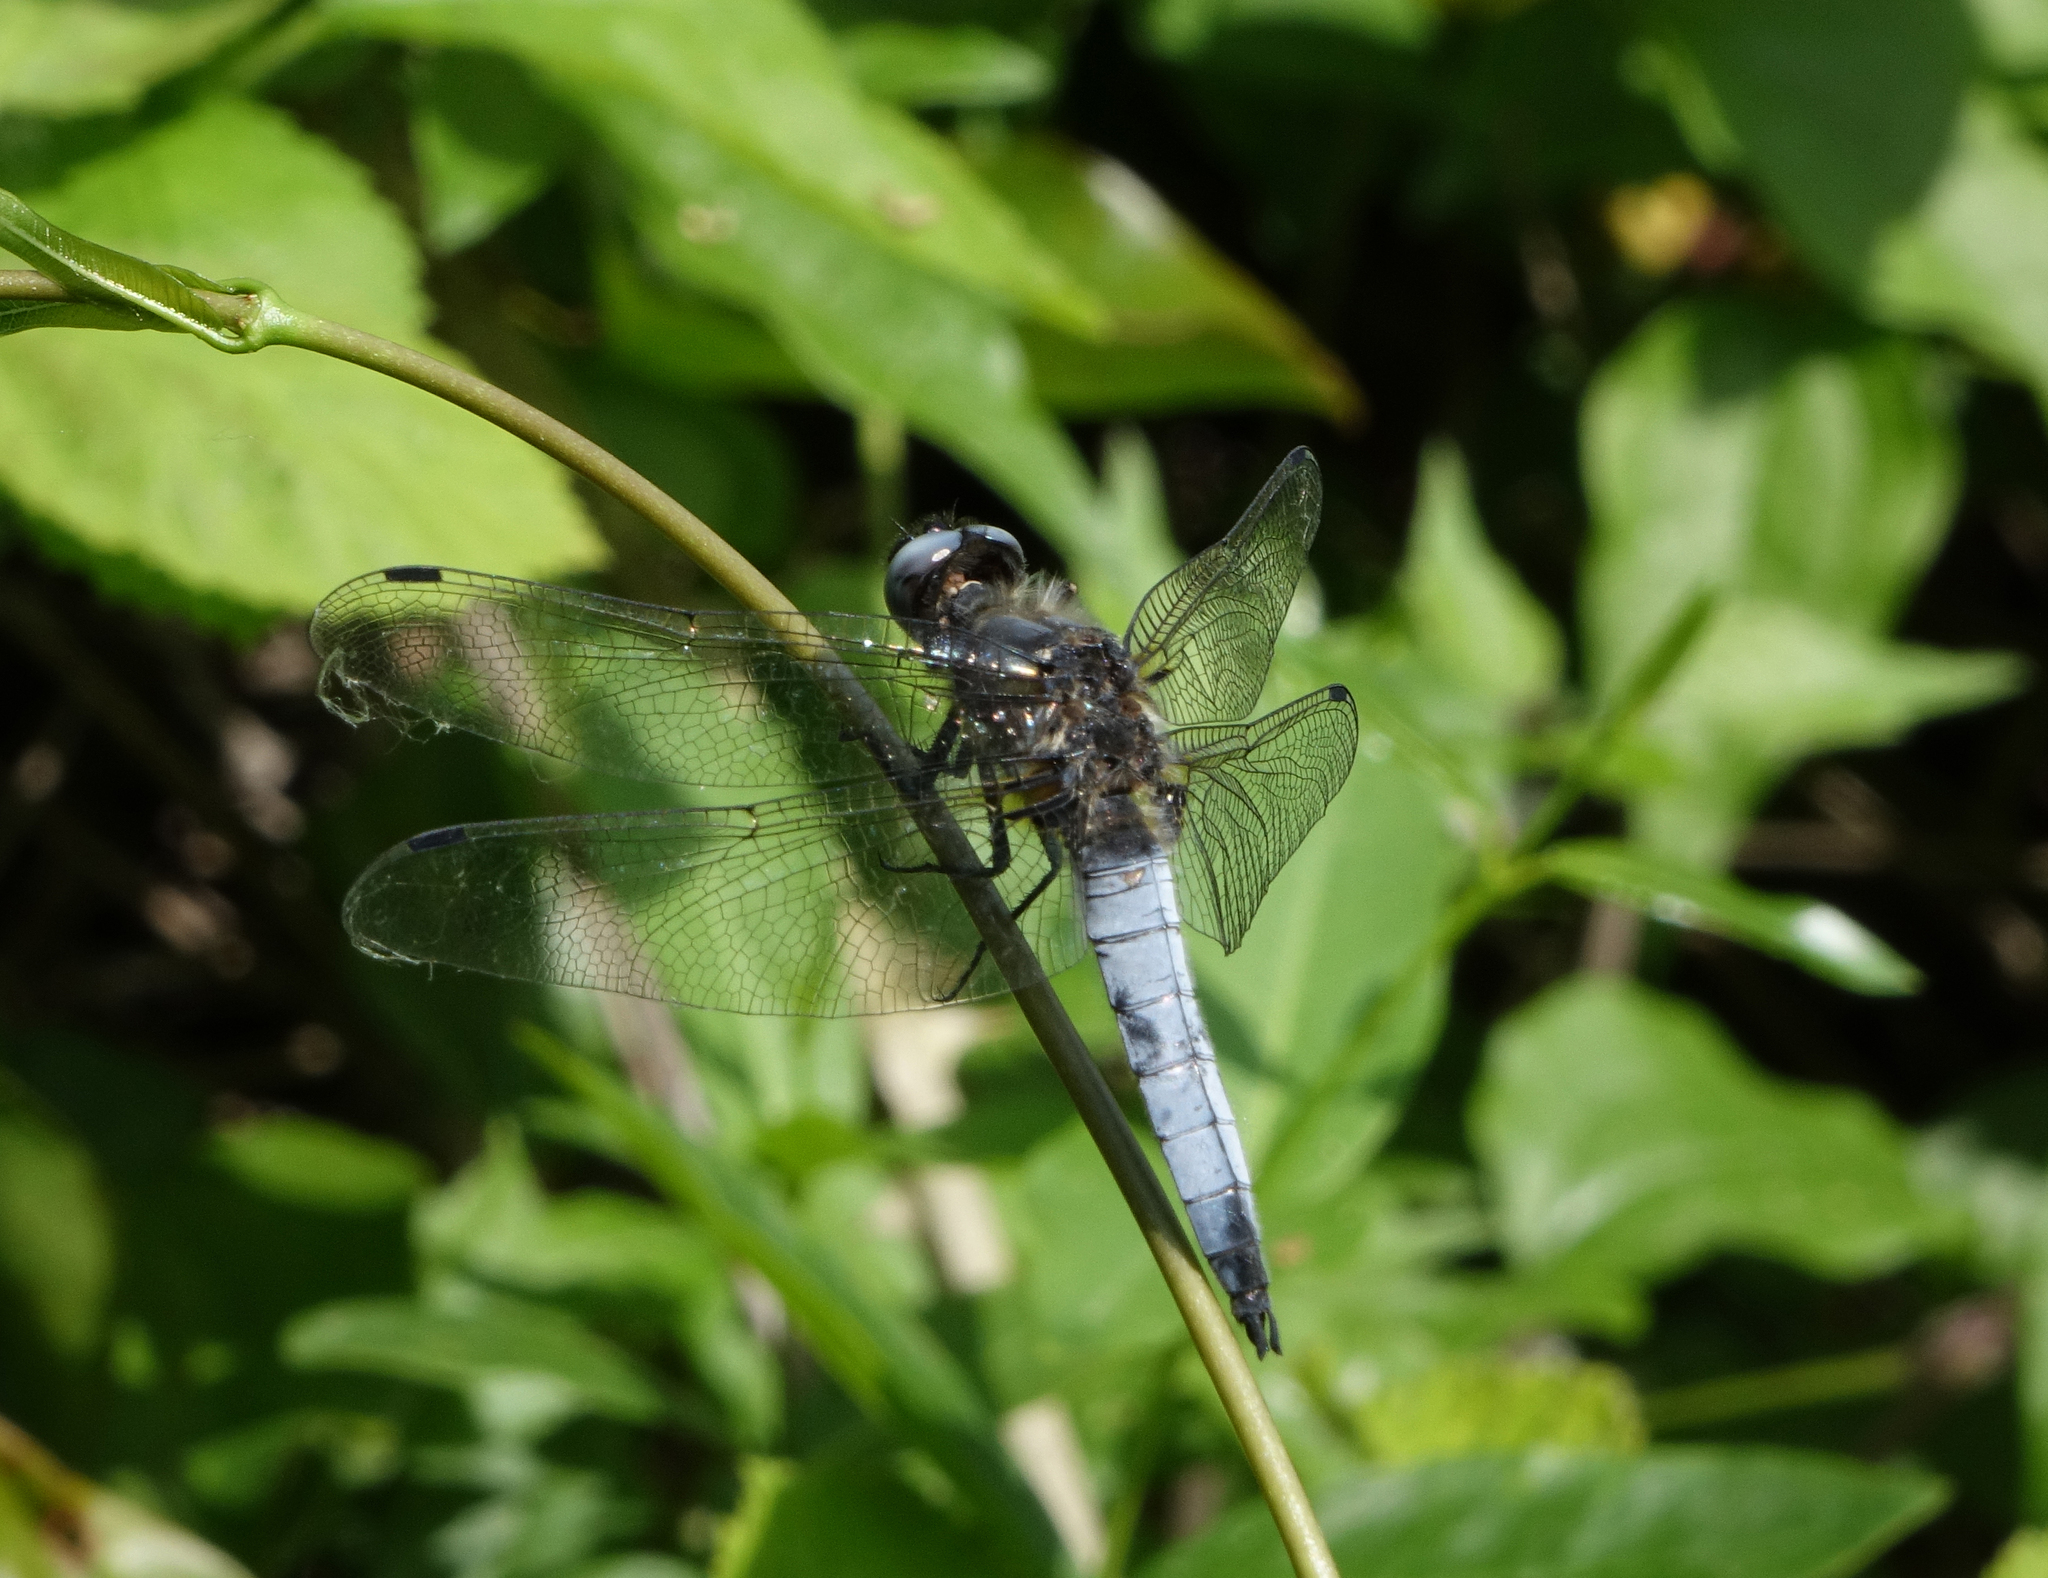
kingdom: Animalia
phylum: Arthropoda
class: Insecta
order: Odonata
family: Libellulidae
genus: Libellula
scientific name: Libellula fulva
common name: Blue chaser
